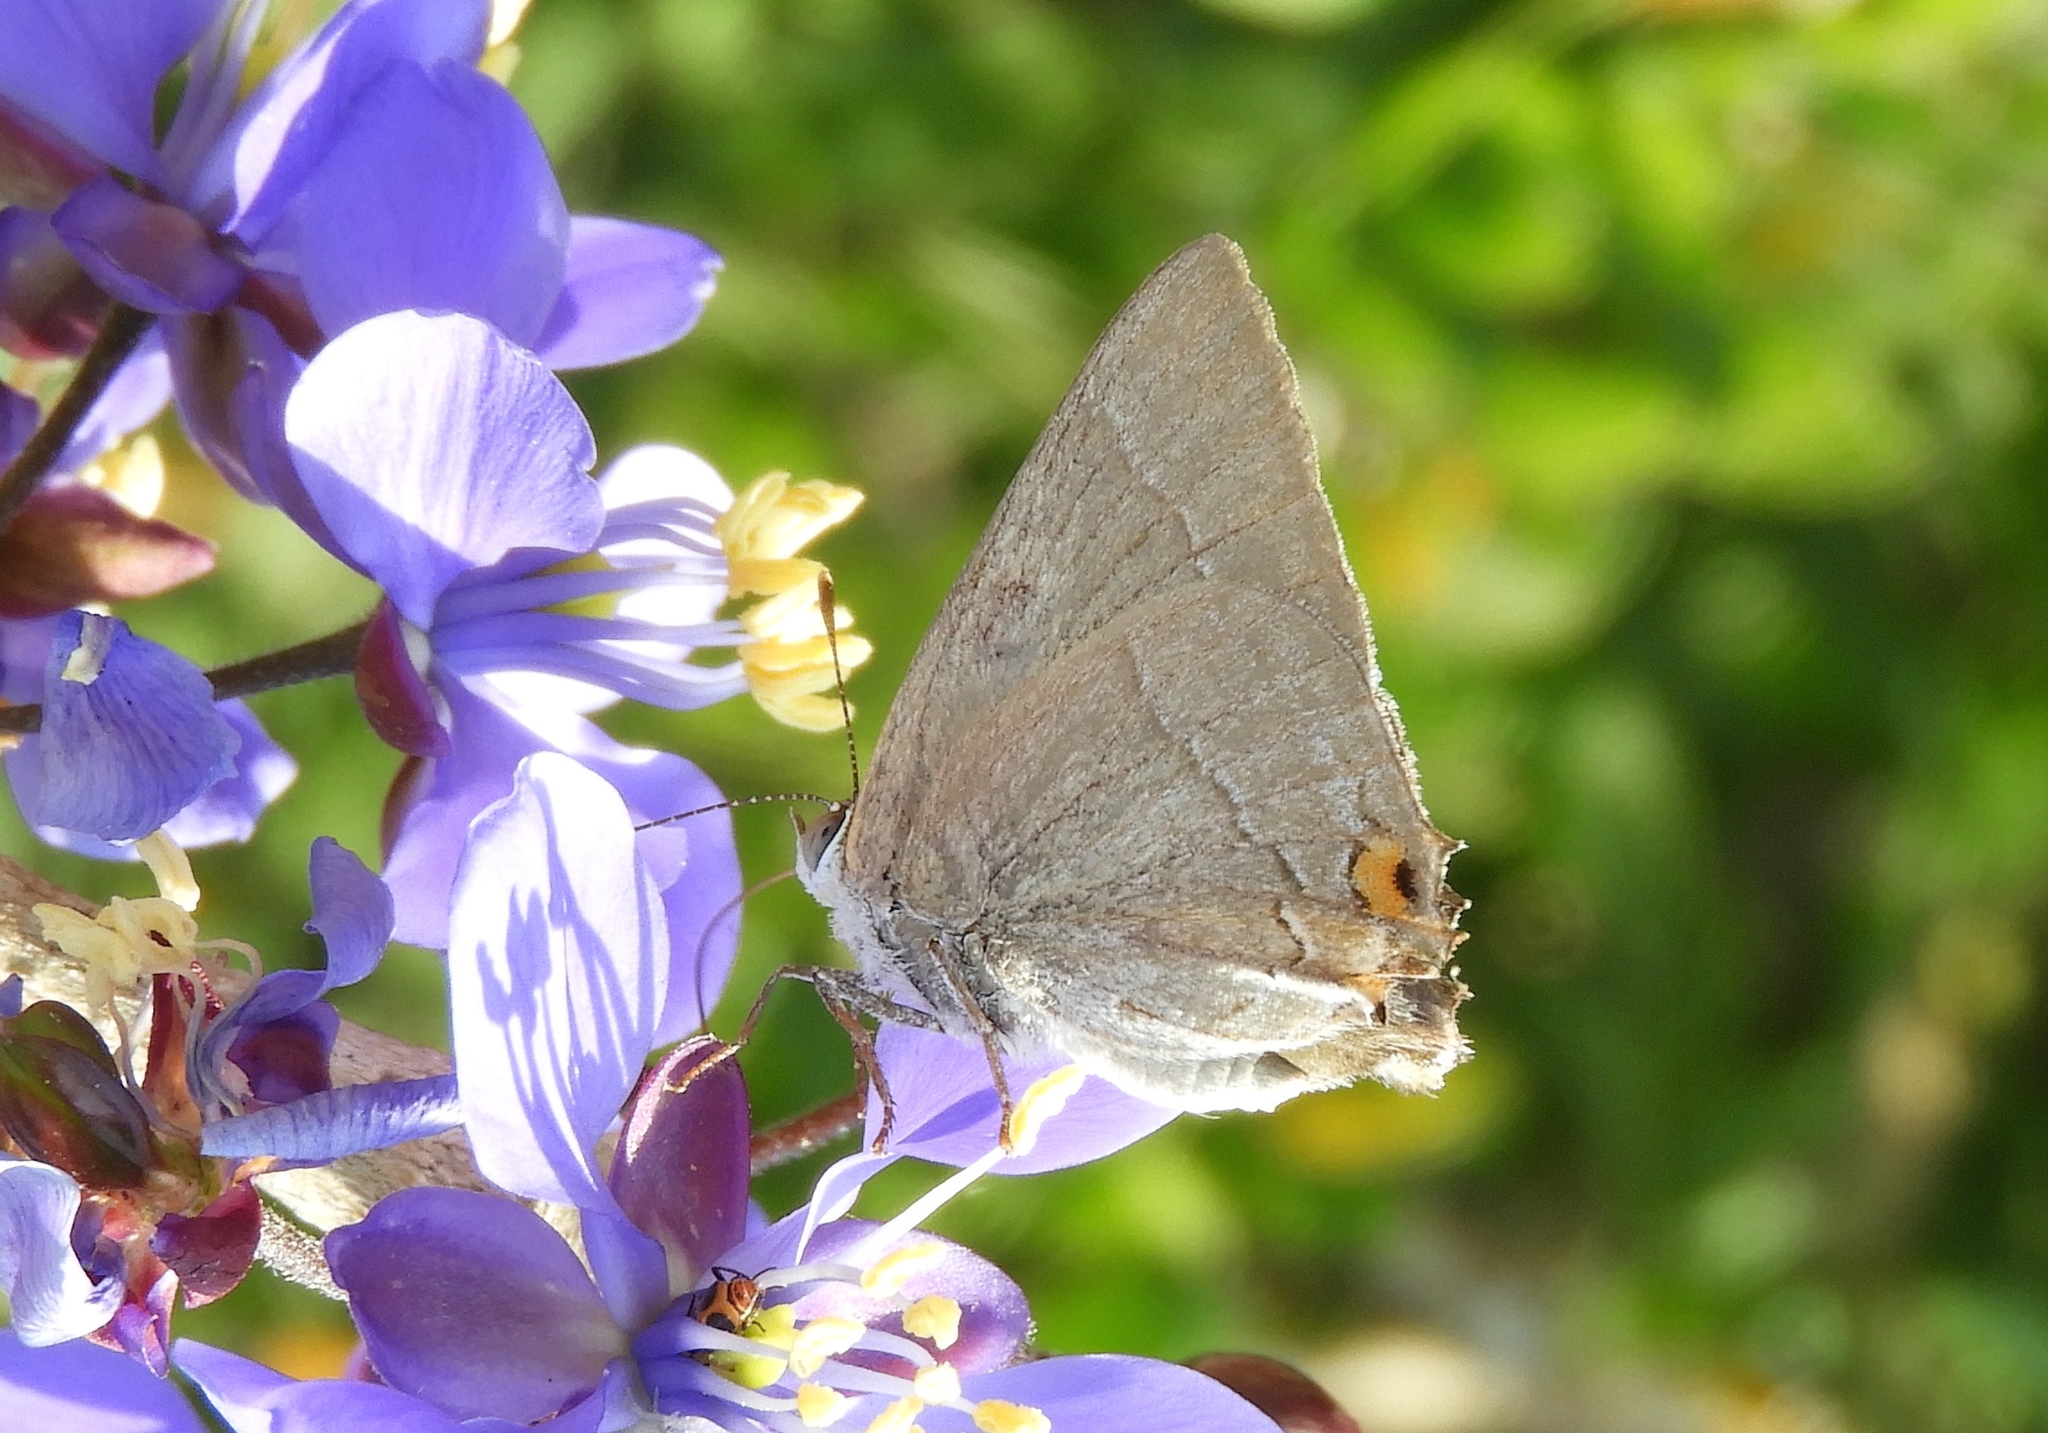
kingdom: Animalia
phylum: Arthropoda
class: Insecta
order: Lepidoptera
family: Lycaenidae
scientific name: Lycaenidae
